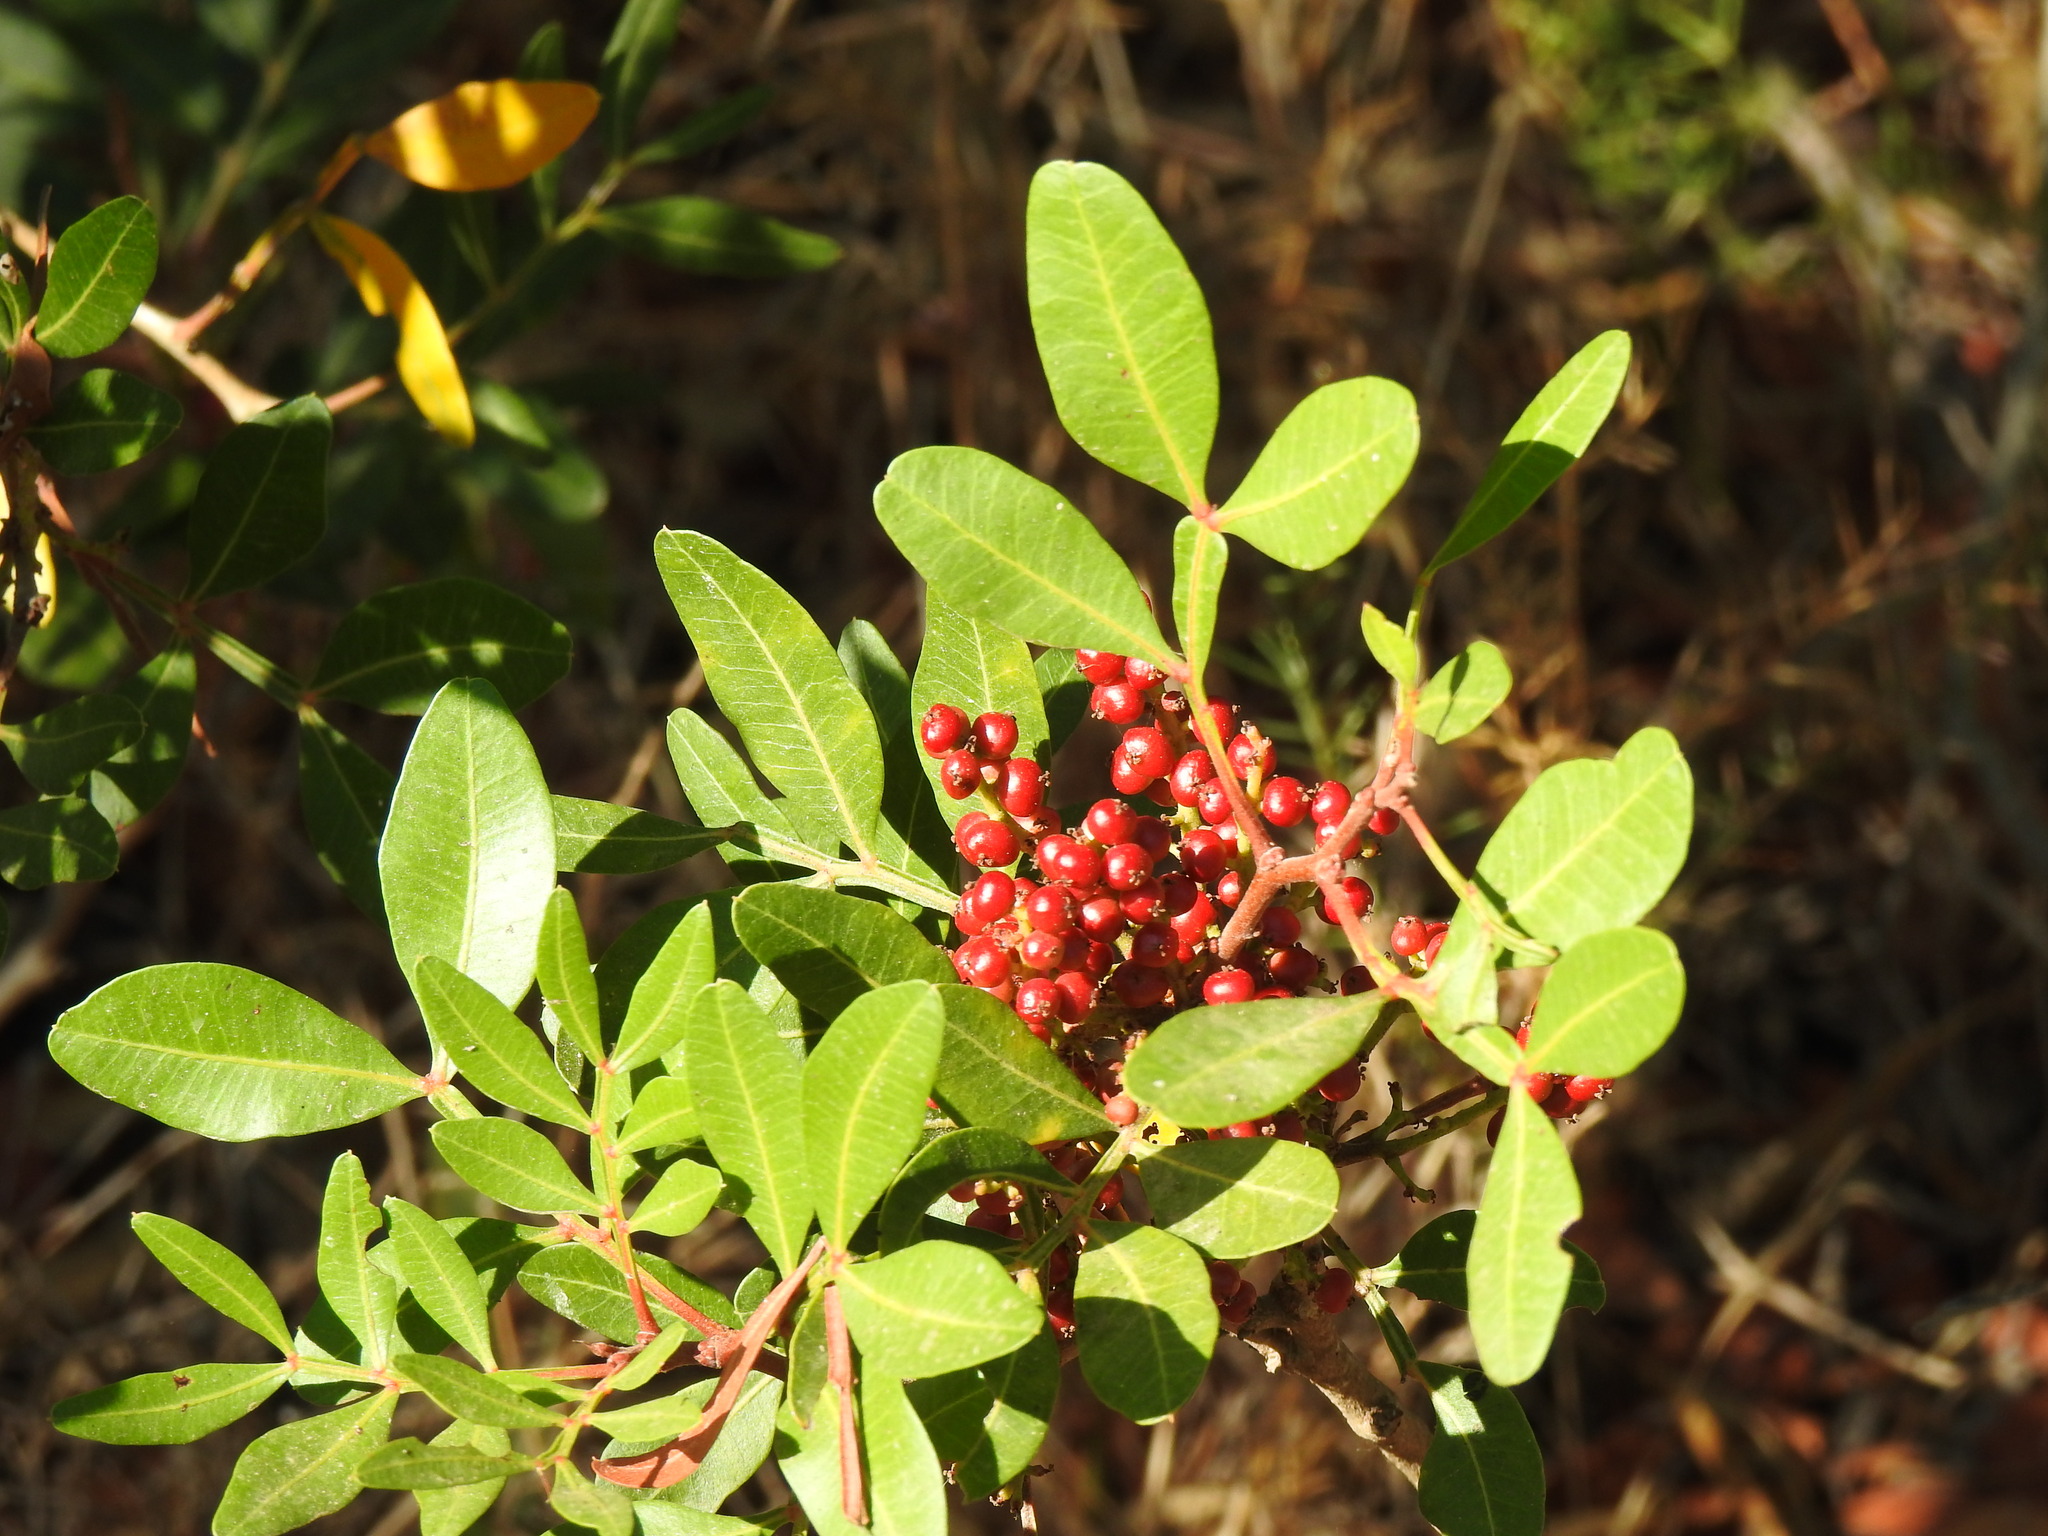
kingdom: Plantae
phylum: Tracheophyta
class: Magnoliopsida
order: Sapindales
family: Anacardiaceae
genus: Pistacia
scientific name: Pistacia lentiscus
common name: Lentisk
